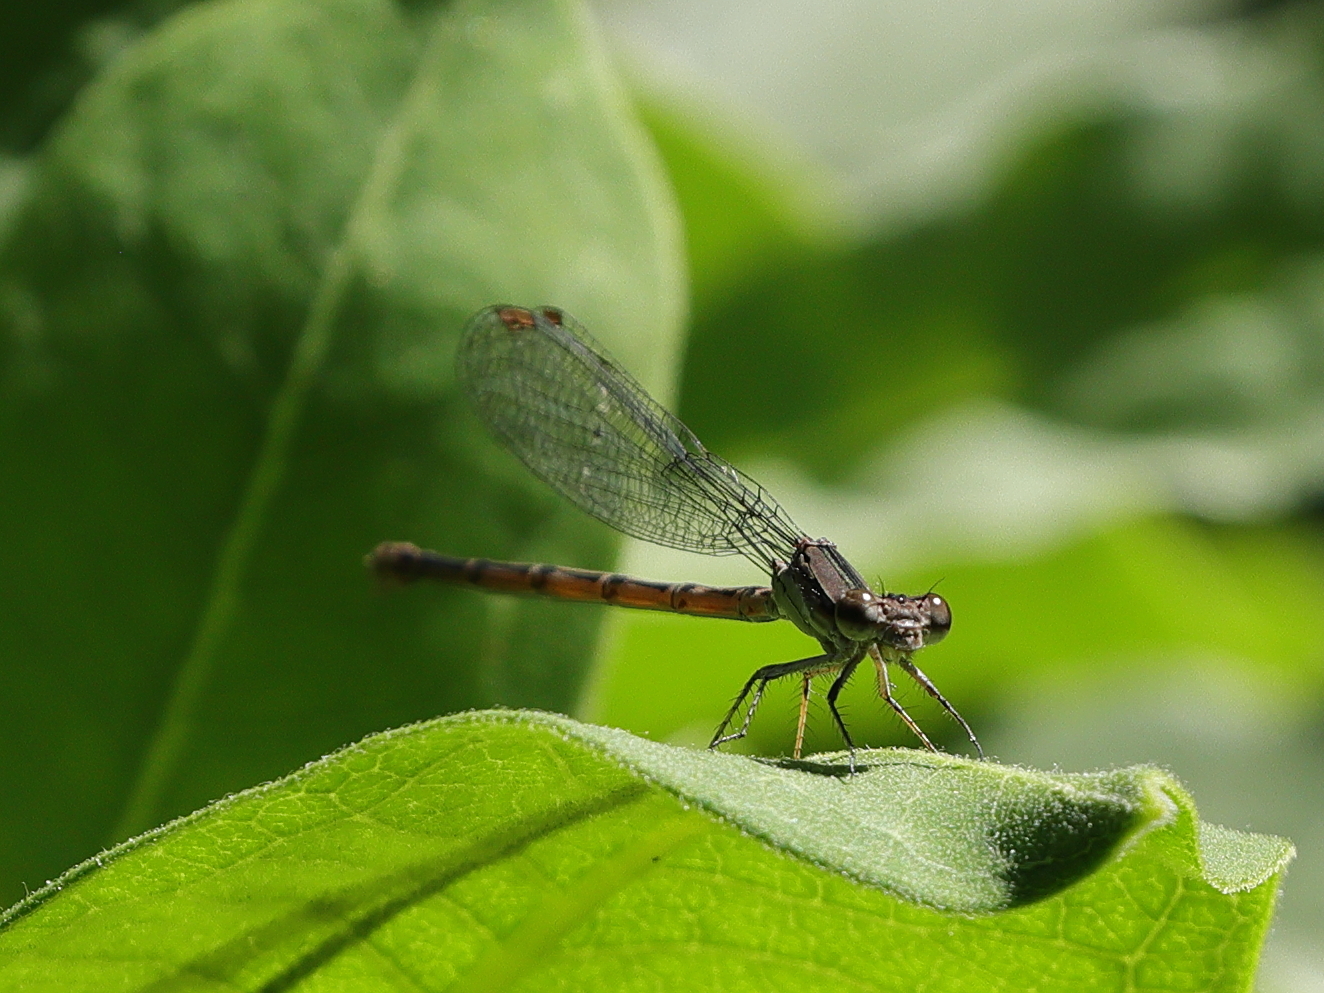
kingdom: Animalia
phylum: Arthropoda
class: Insecta
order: Odonata
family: Coenagrionidae
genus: Argia
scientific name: Argia fumipennis
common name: Variable dancer
